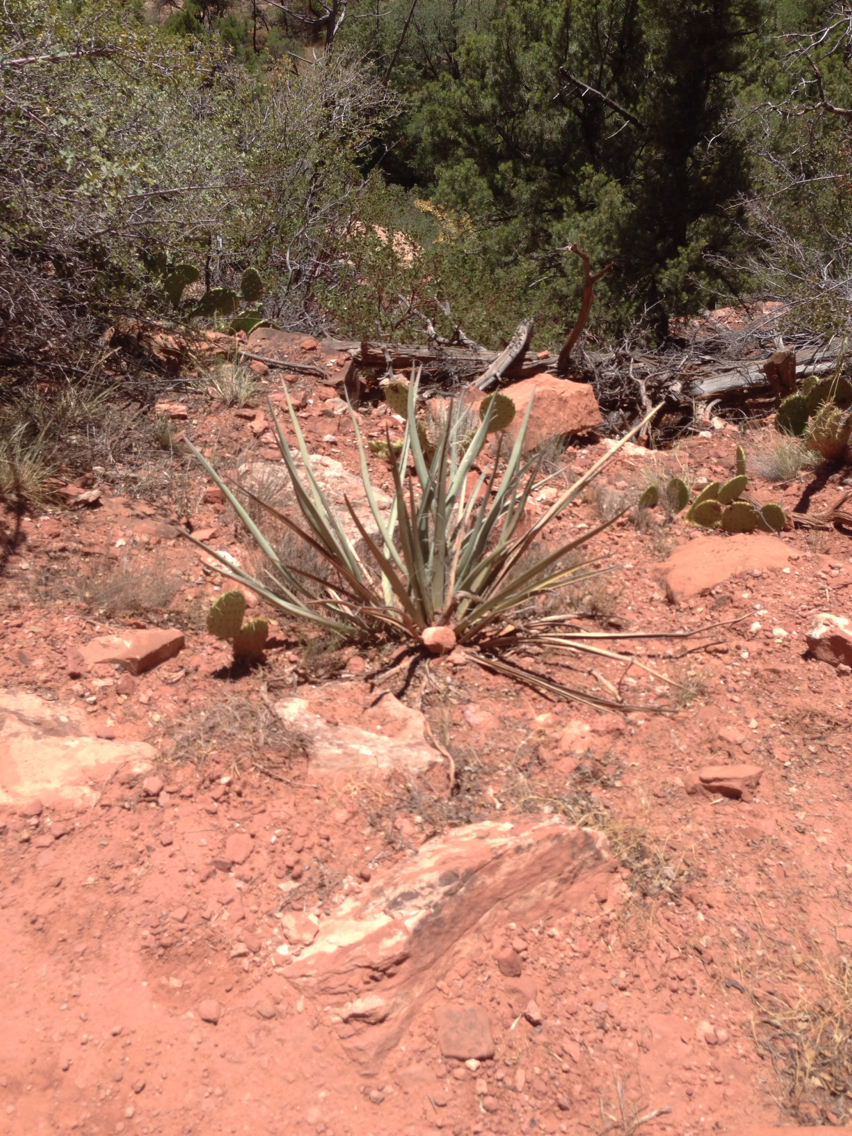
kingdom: Plantae
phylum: Tracheophyta
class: Liliopsida
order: Asparagales
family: Asparagaceae
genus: Yucca
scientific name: Yucca baccata
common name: Banana yucca
